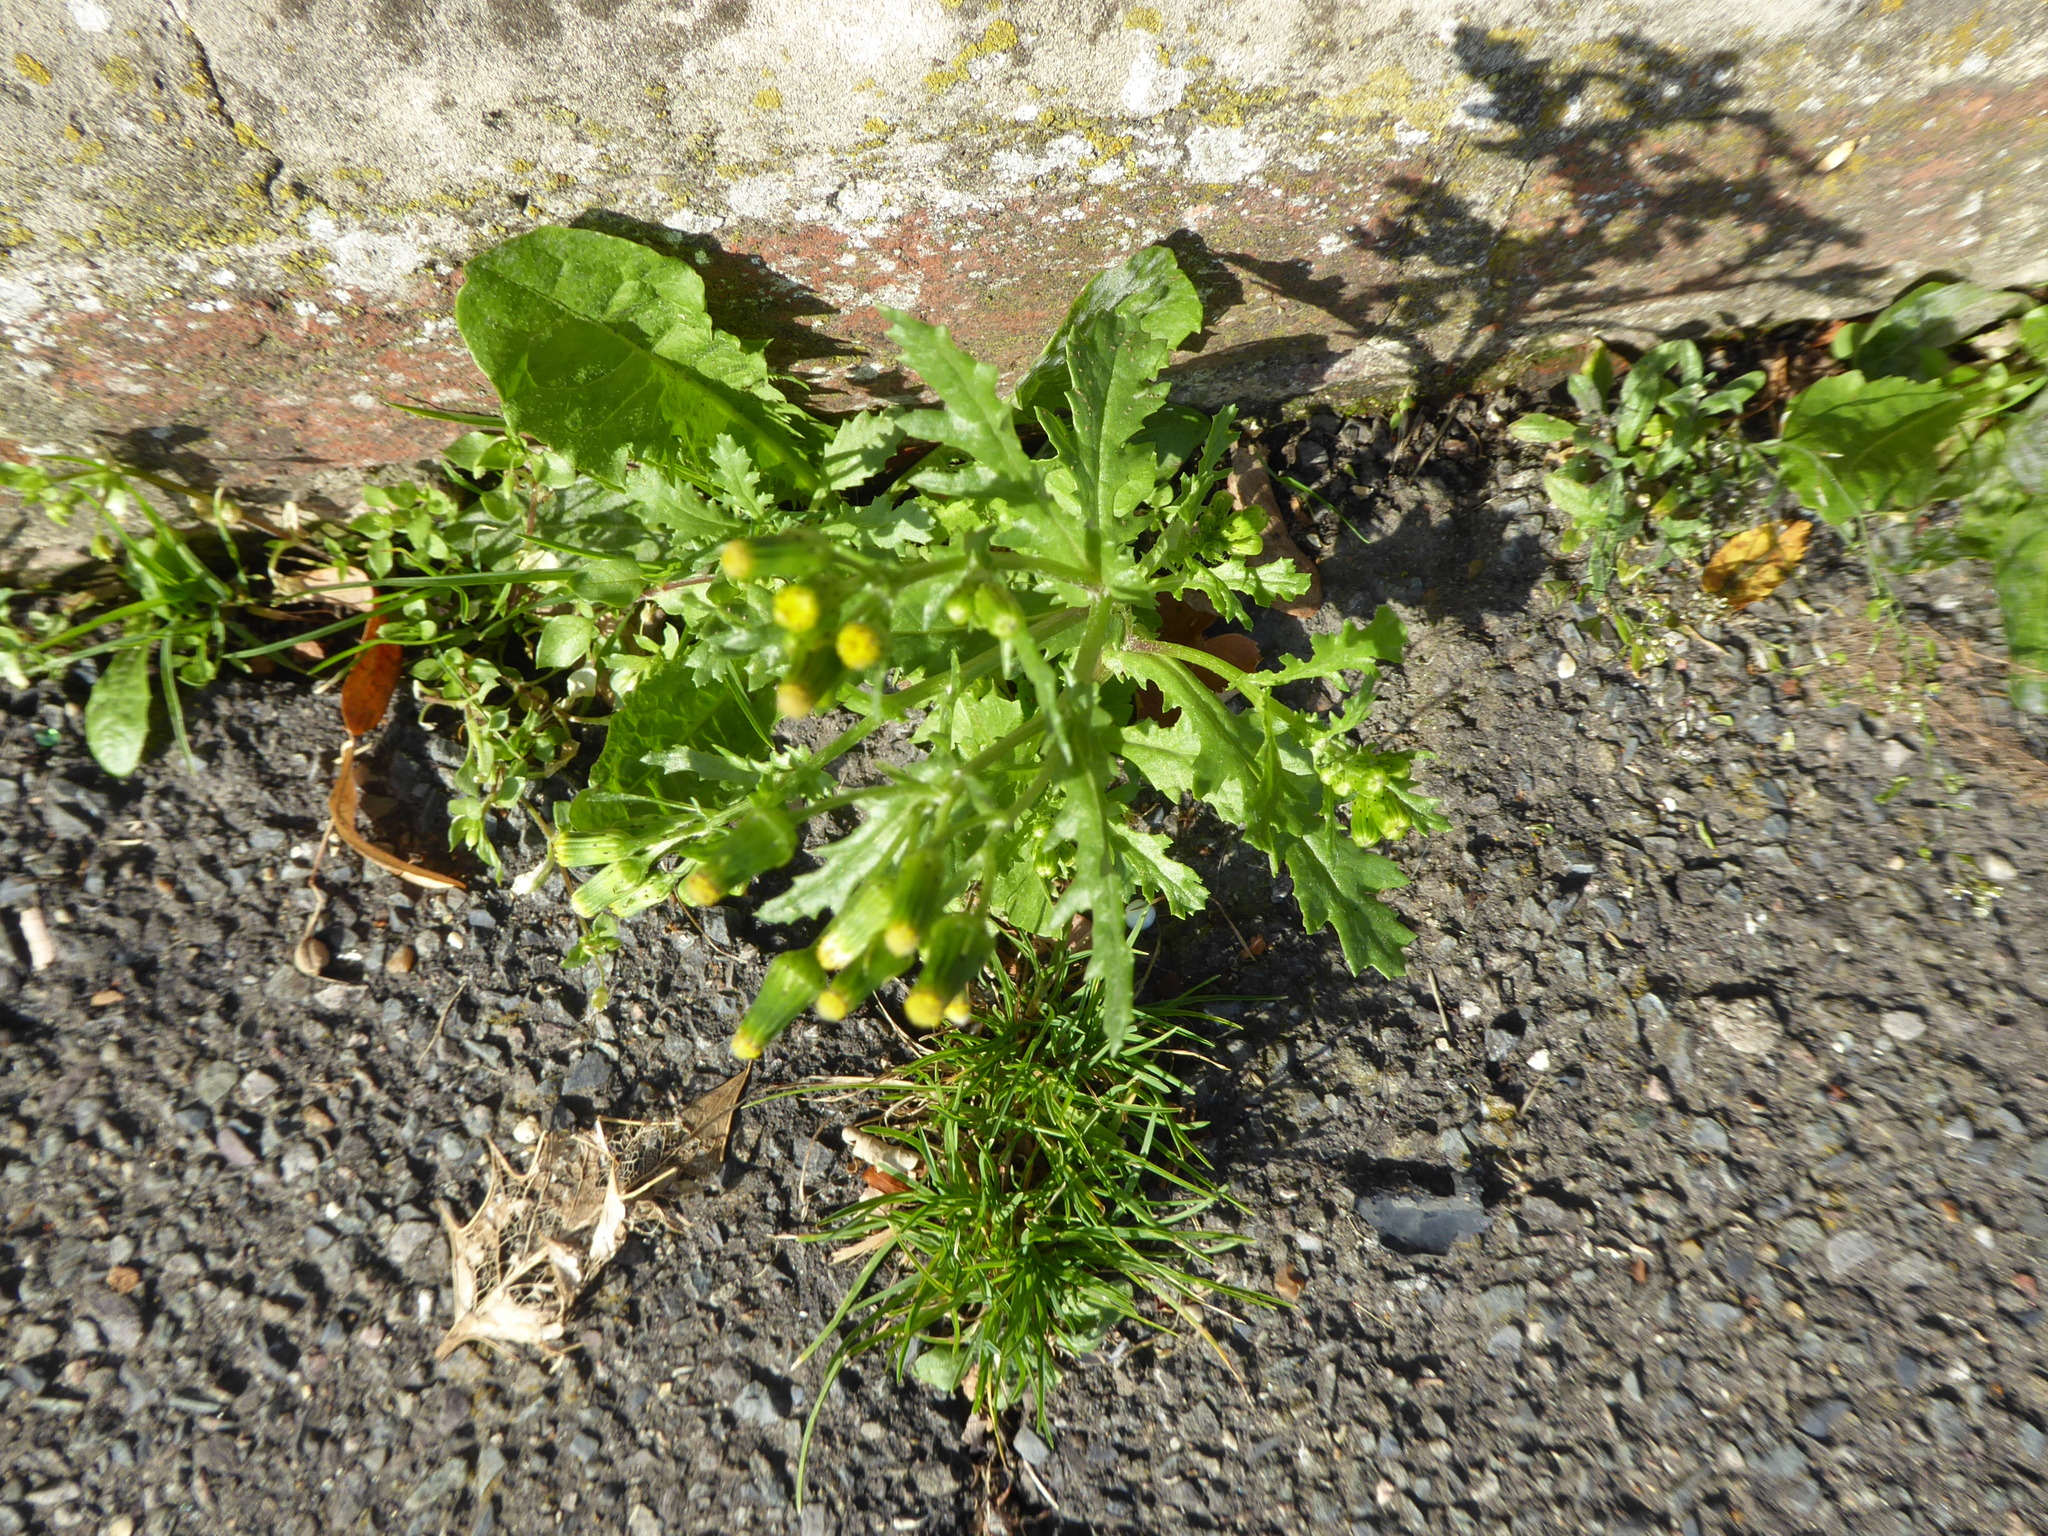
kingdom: Plantae
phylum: Tracheophyta
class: Magnoliopsida
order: Asterales
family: Asteraceae
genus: Senecio
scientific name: Senecio vulgaris
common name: Old-man-in-the-spring
